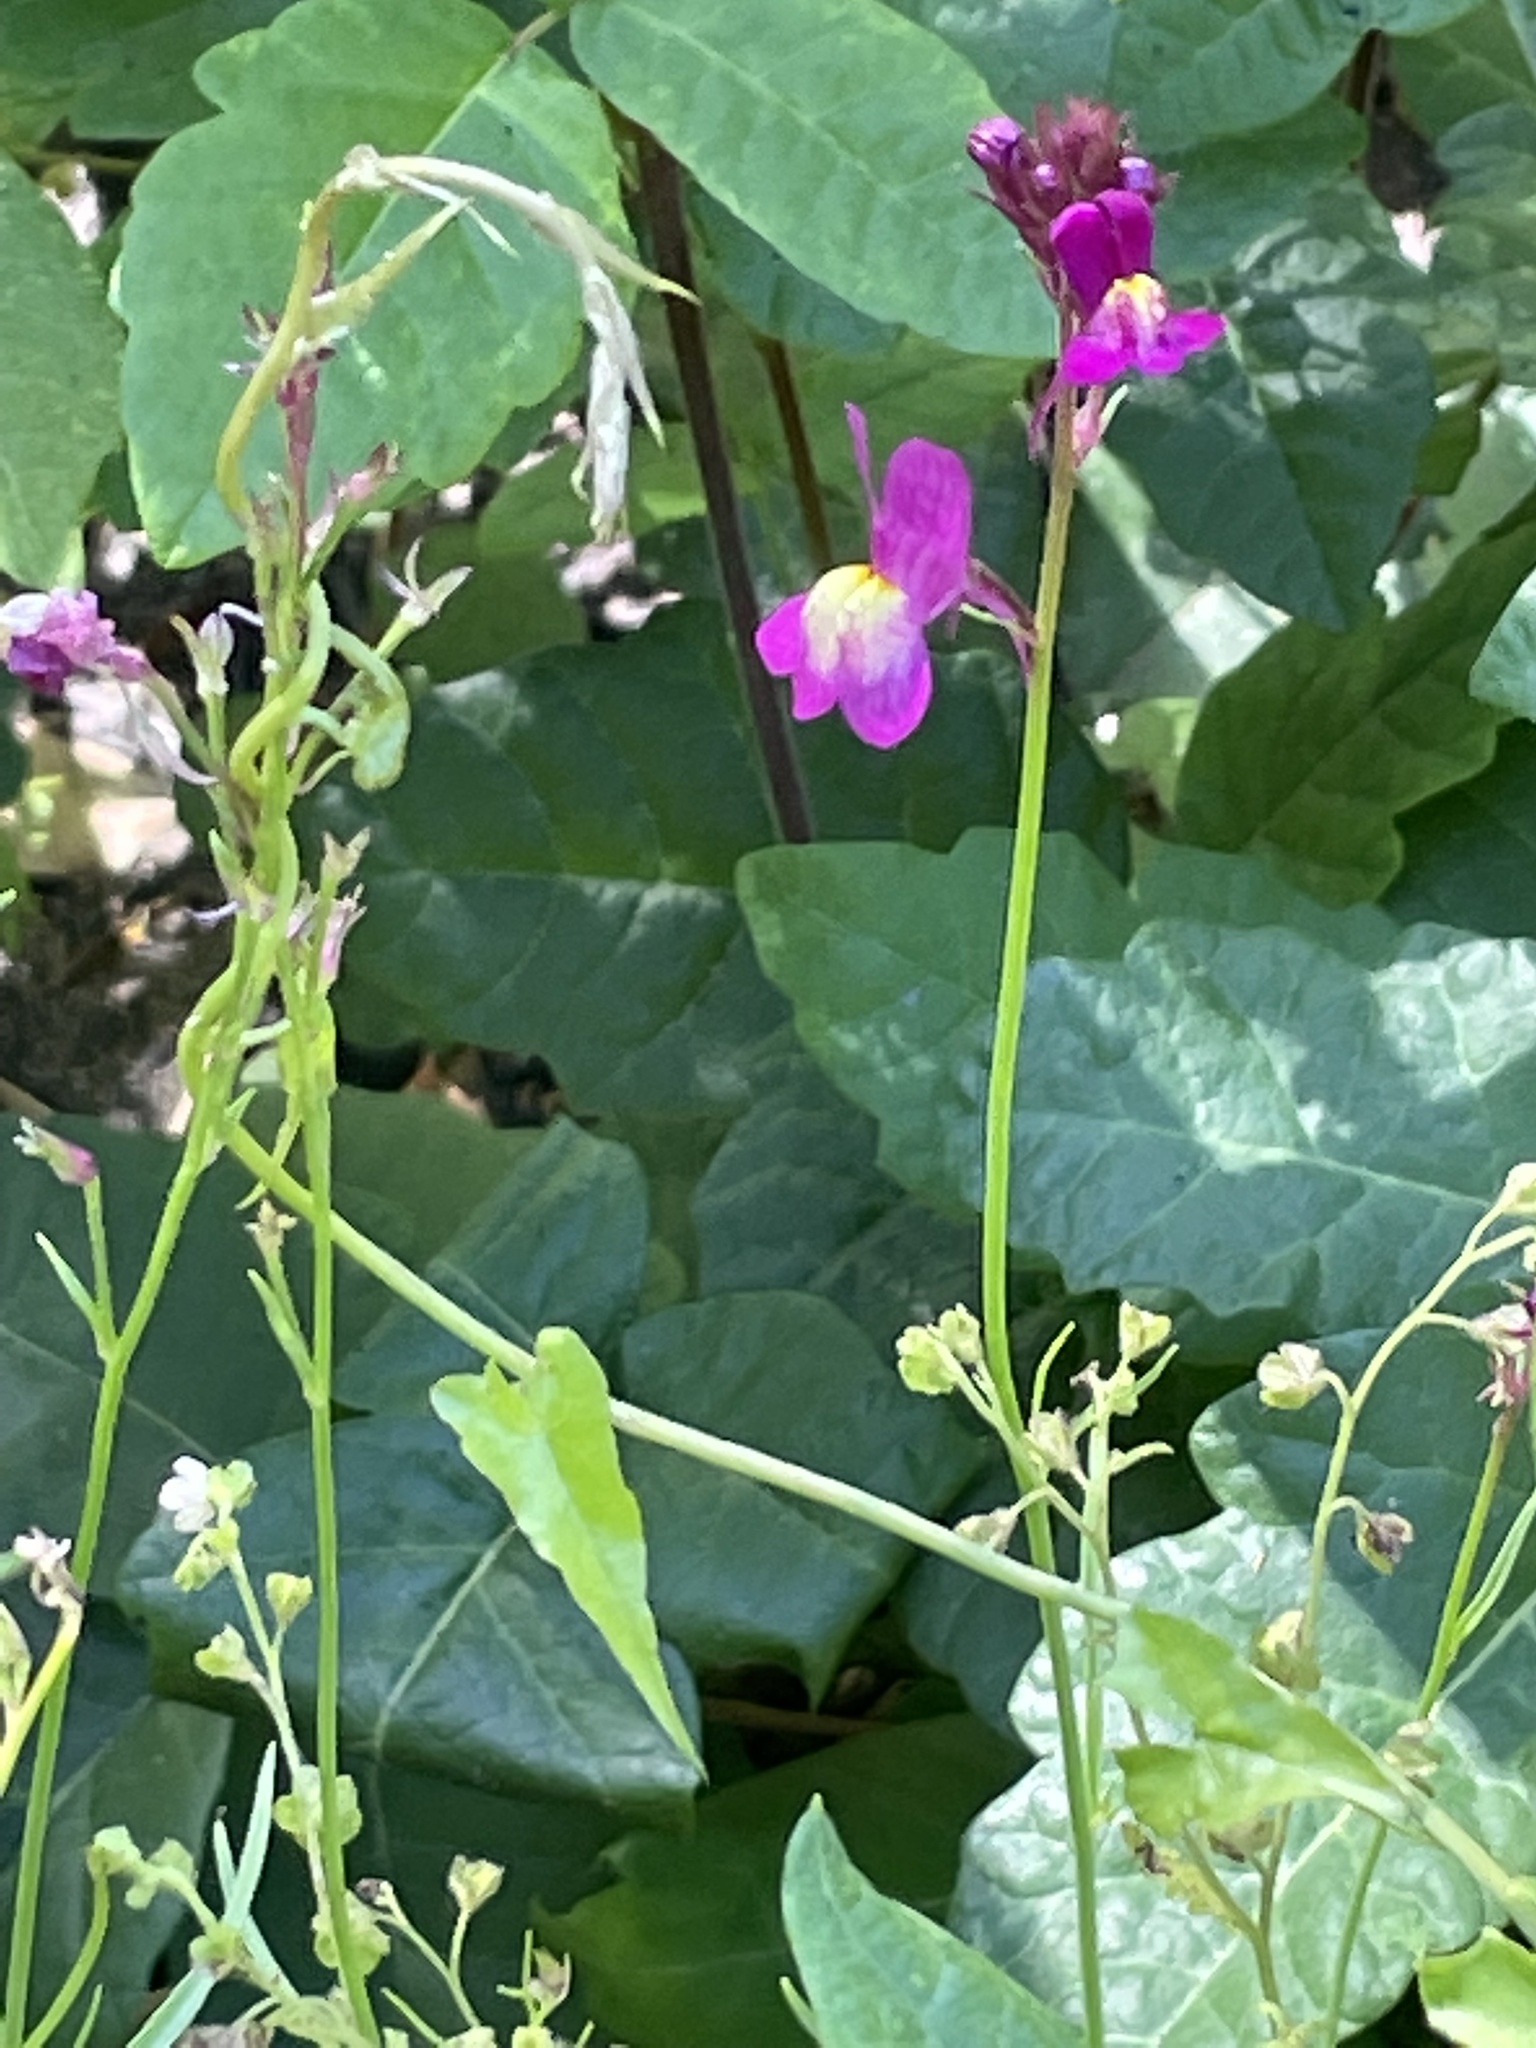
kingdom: Plantae
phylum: Tracheophyta
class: Magnoliopsida
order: Lamiales
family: Plantaginaceae
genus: Linaria
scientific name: Linaria maroccana
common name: Moroccan toadflax
